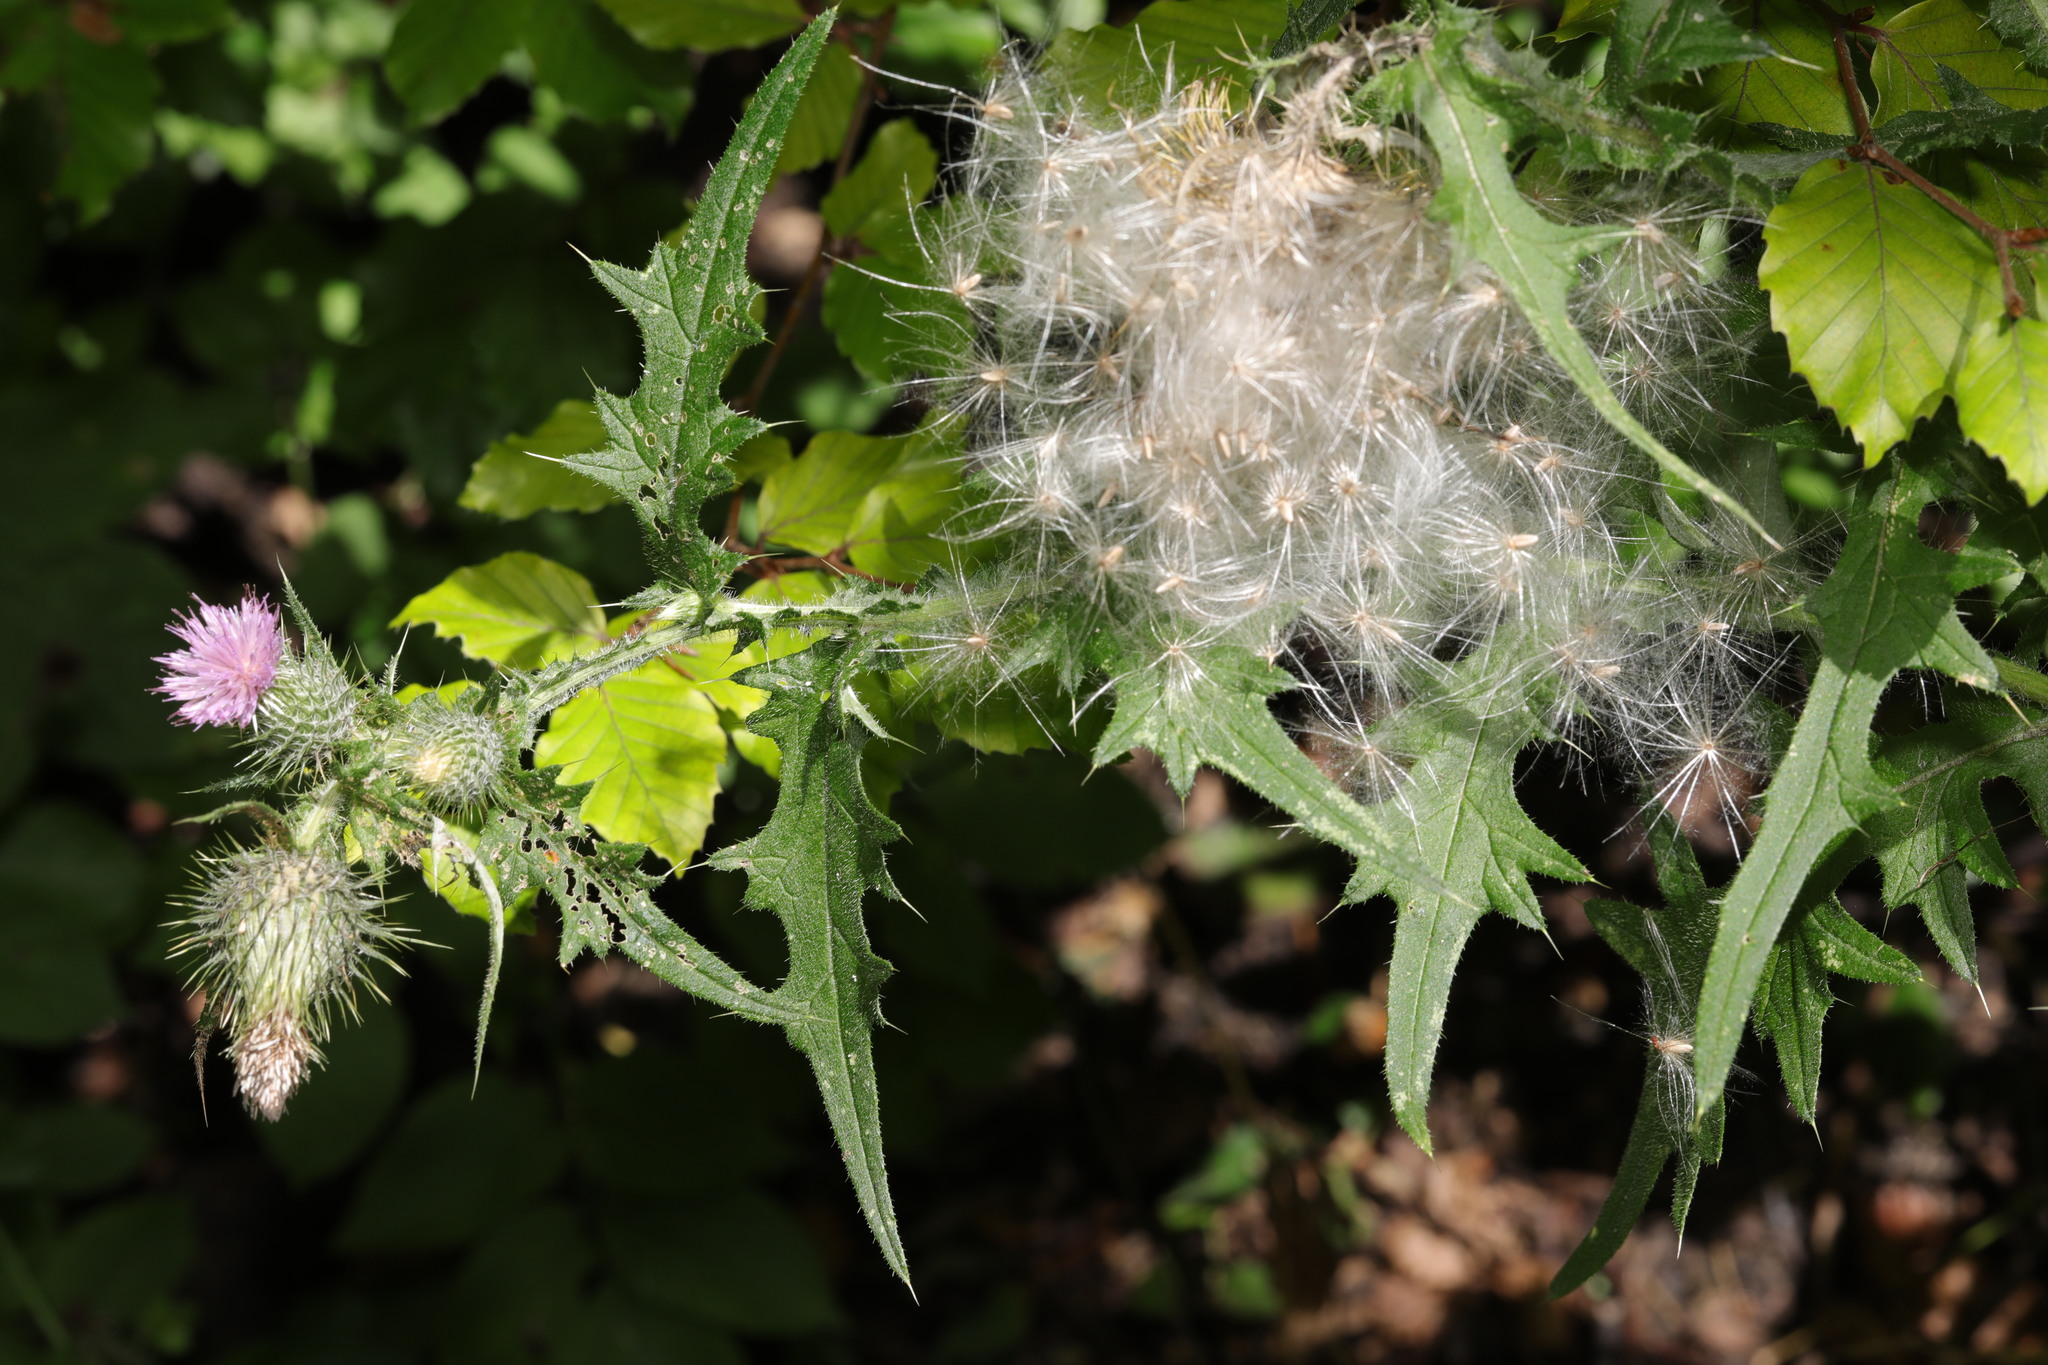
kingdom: Plantae
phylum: Tracheophyta
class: Magnoliopsida
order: Asterales
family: Asteraceae
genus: Cirsium
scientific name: Cirsium vulgare
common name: Bull thistle
